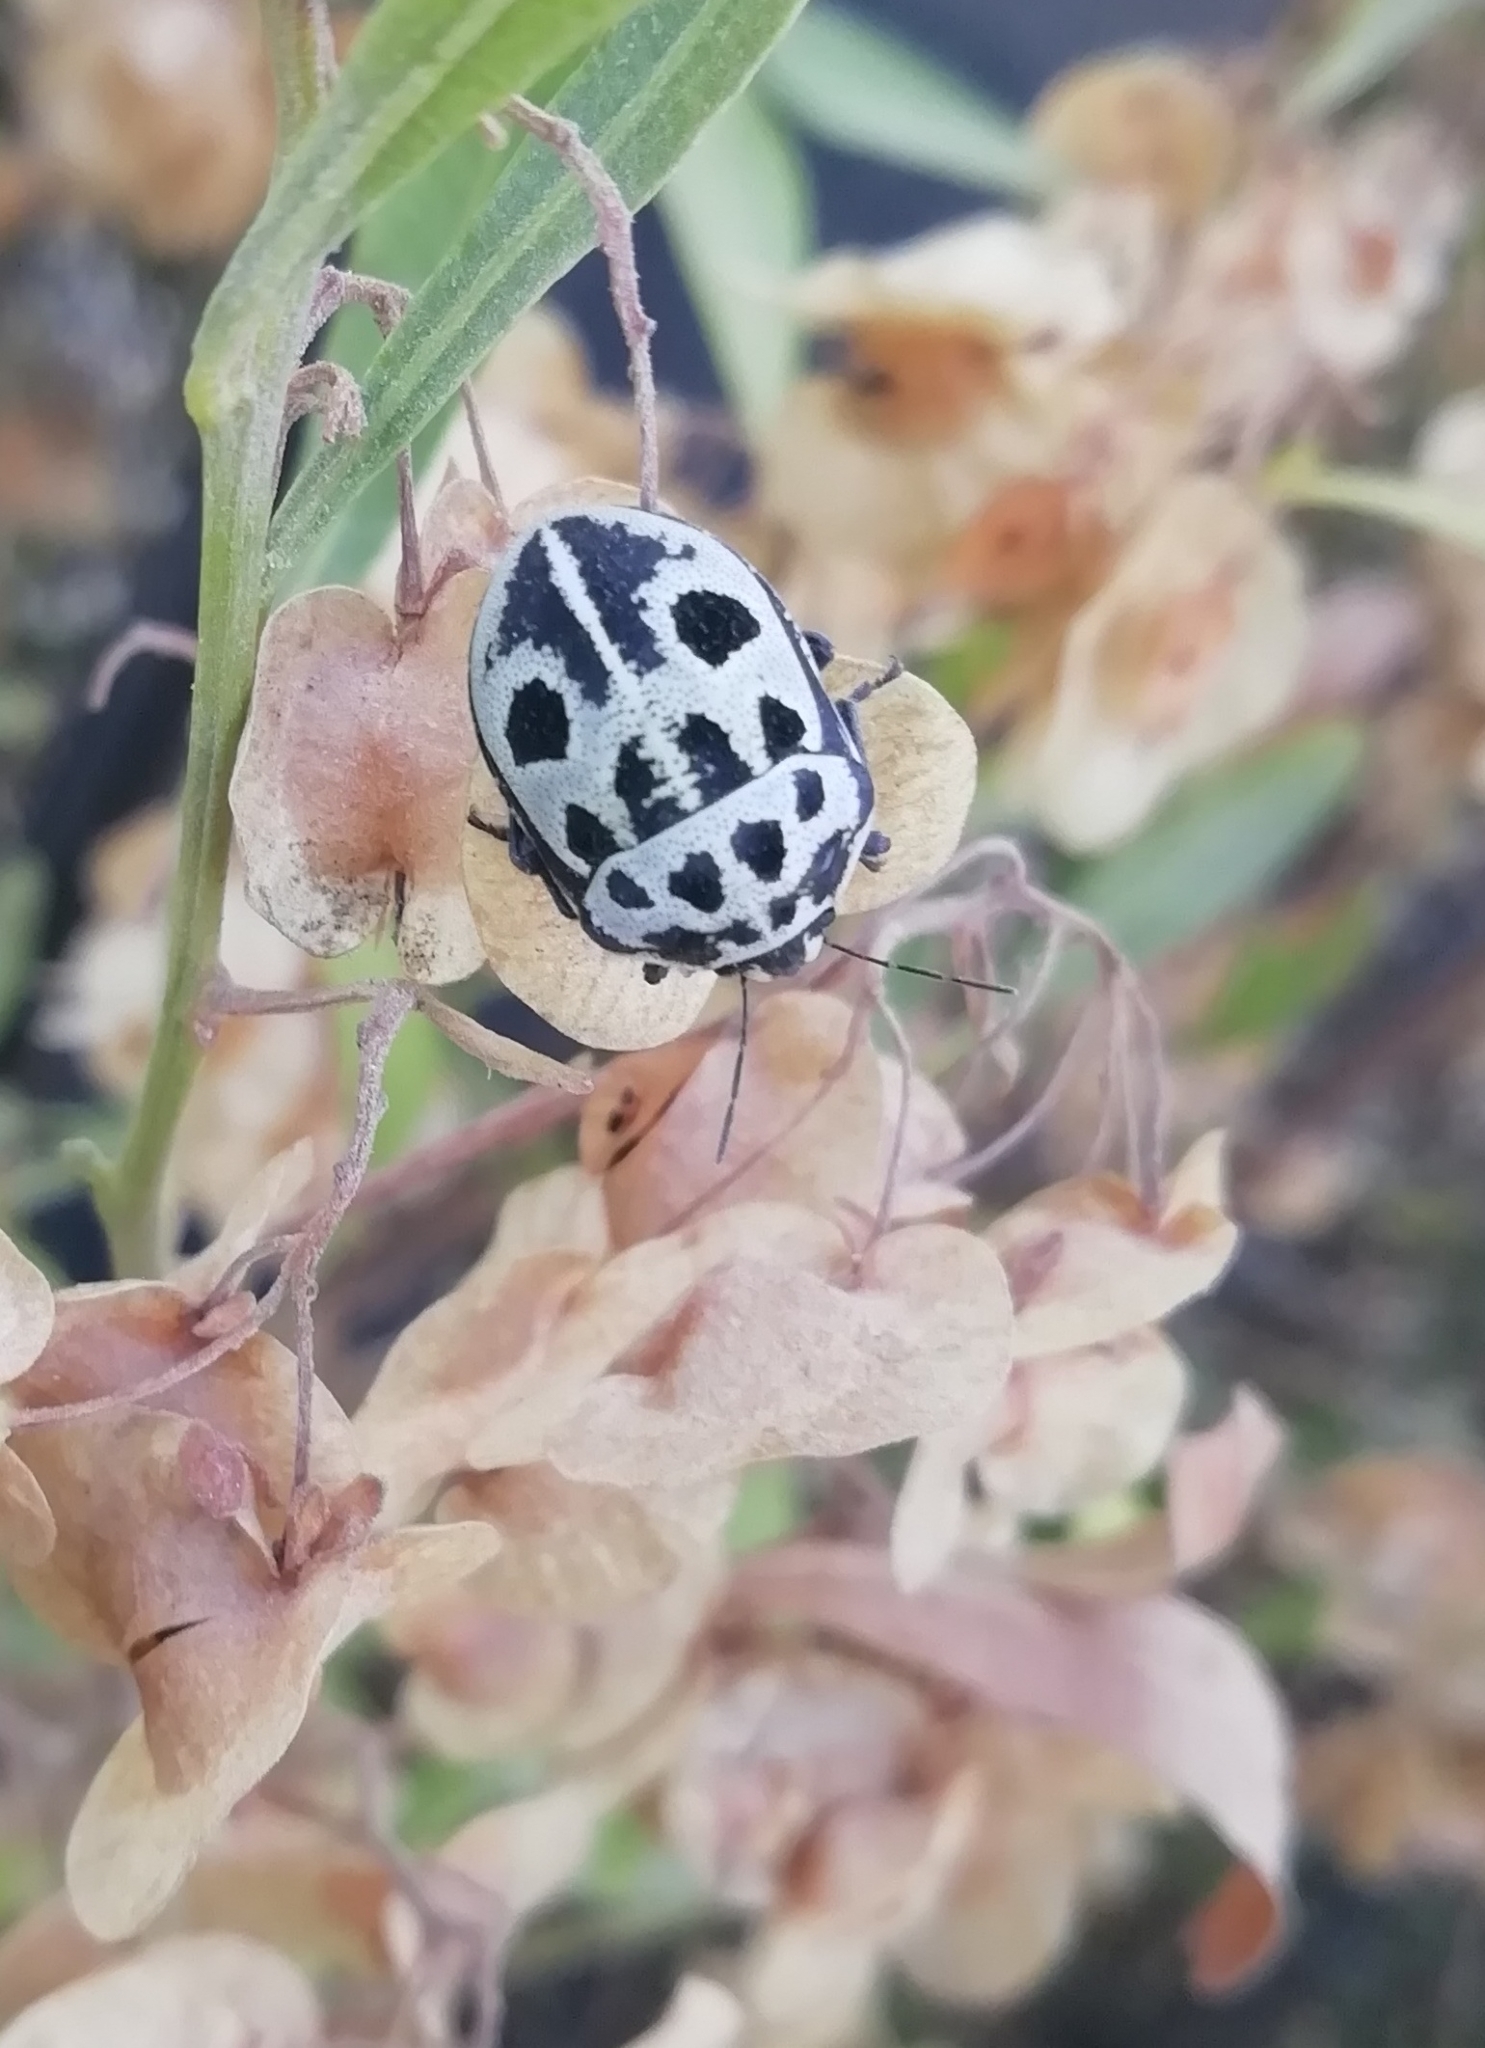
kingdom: Animalia
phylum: Arthropoda
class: Insecta
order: Hemiptera
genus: Deroplax
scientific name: Deroplax silphoides
